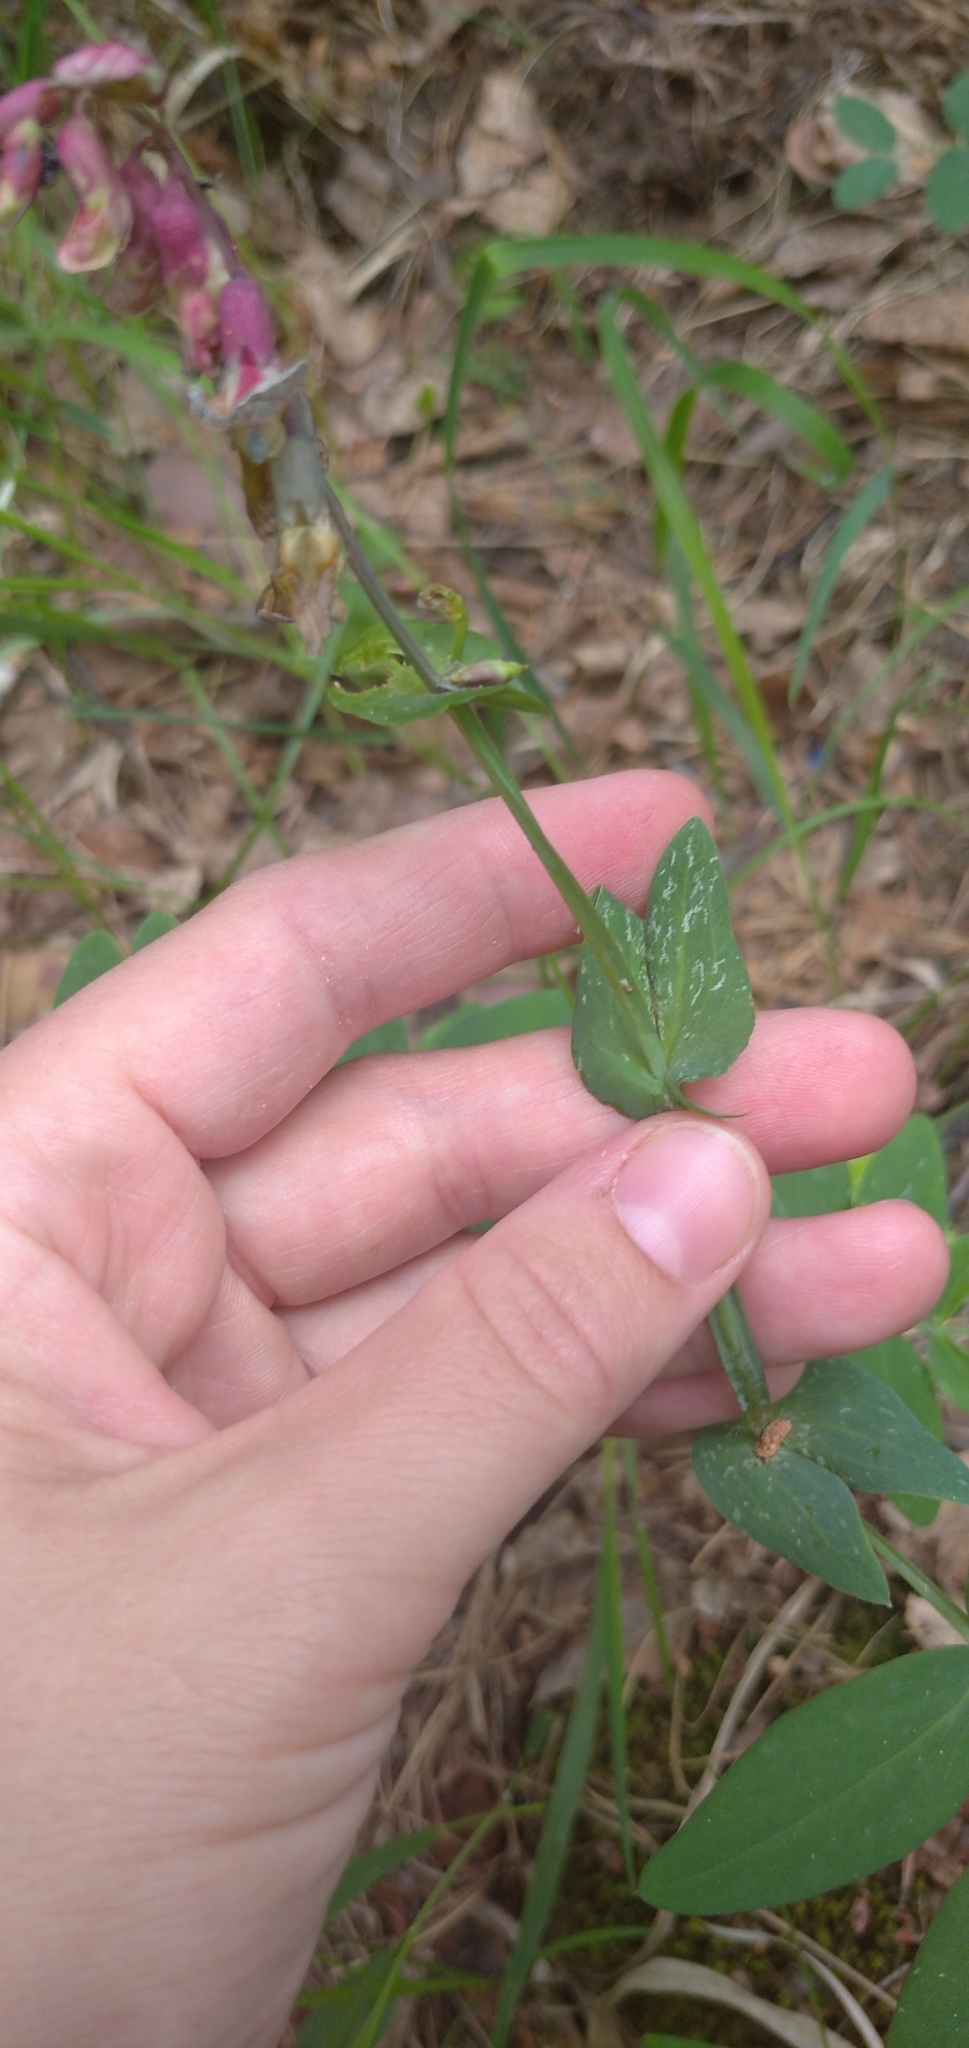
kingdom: Plantae
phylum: Tracheophyta
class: Magnoliopsida
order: Fabales
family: Fabaceae
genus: Lathyrus
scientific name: Lathyrus pisiformis
